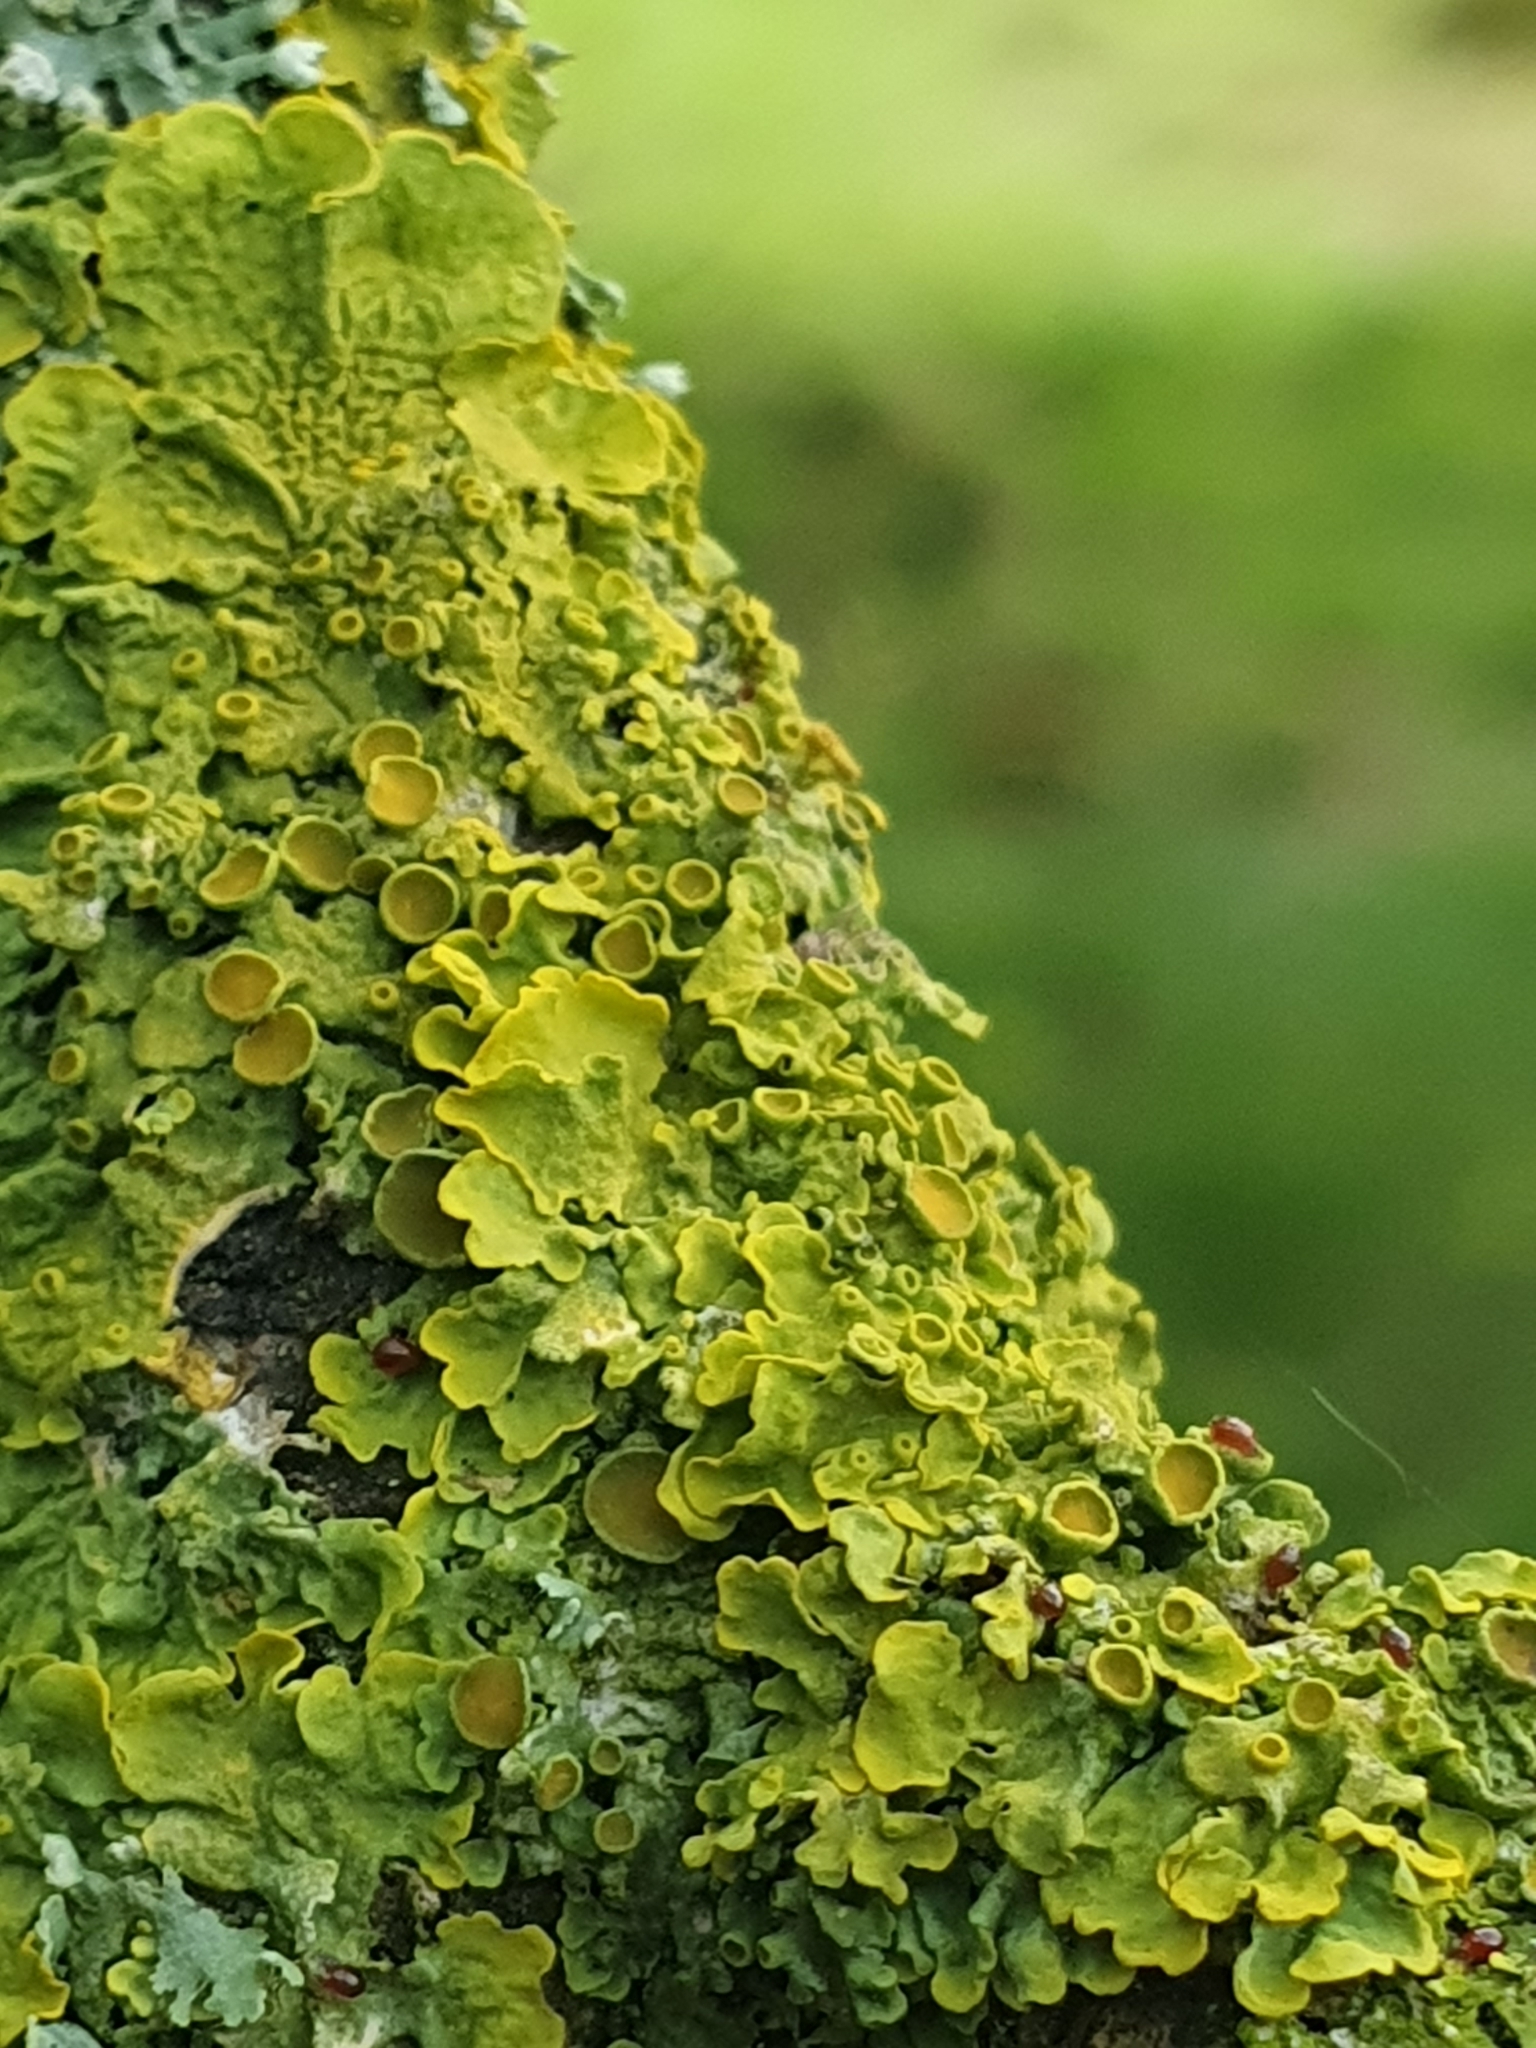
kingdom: Fungi
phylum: Ascomycota
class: Lecanoromycetes
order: Teloschistales
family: Teloschistaceae
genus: Xanthoria
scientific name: Xanthoria parietina
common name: Common orange lichen
